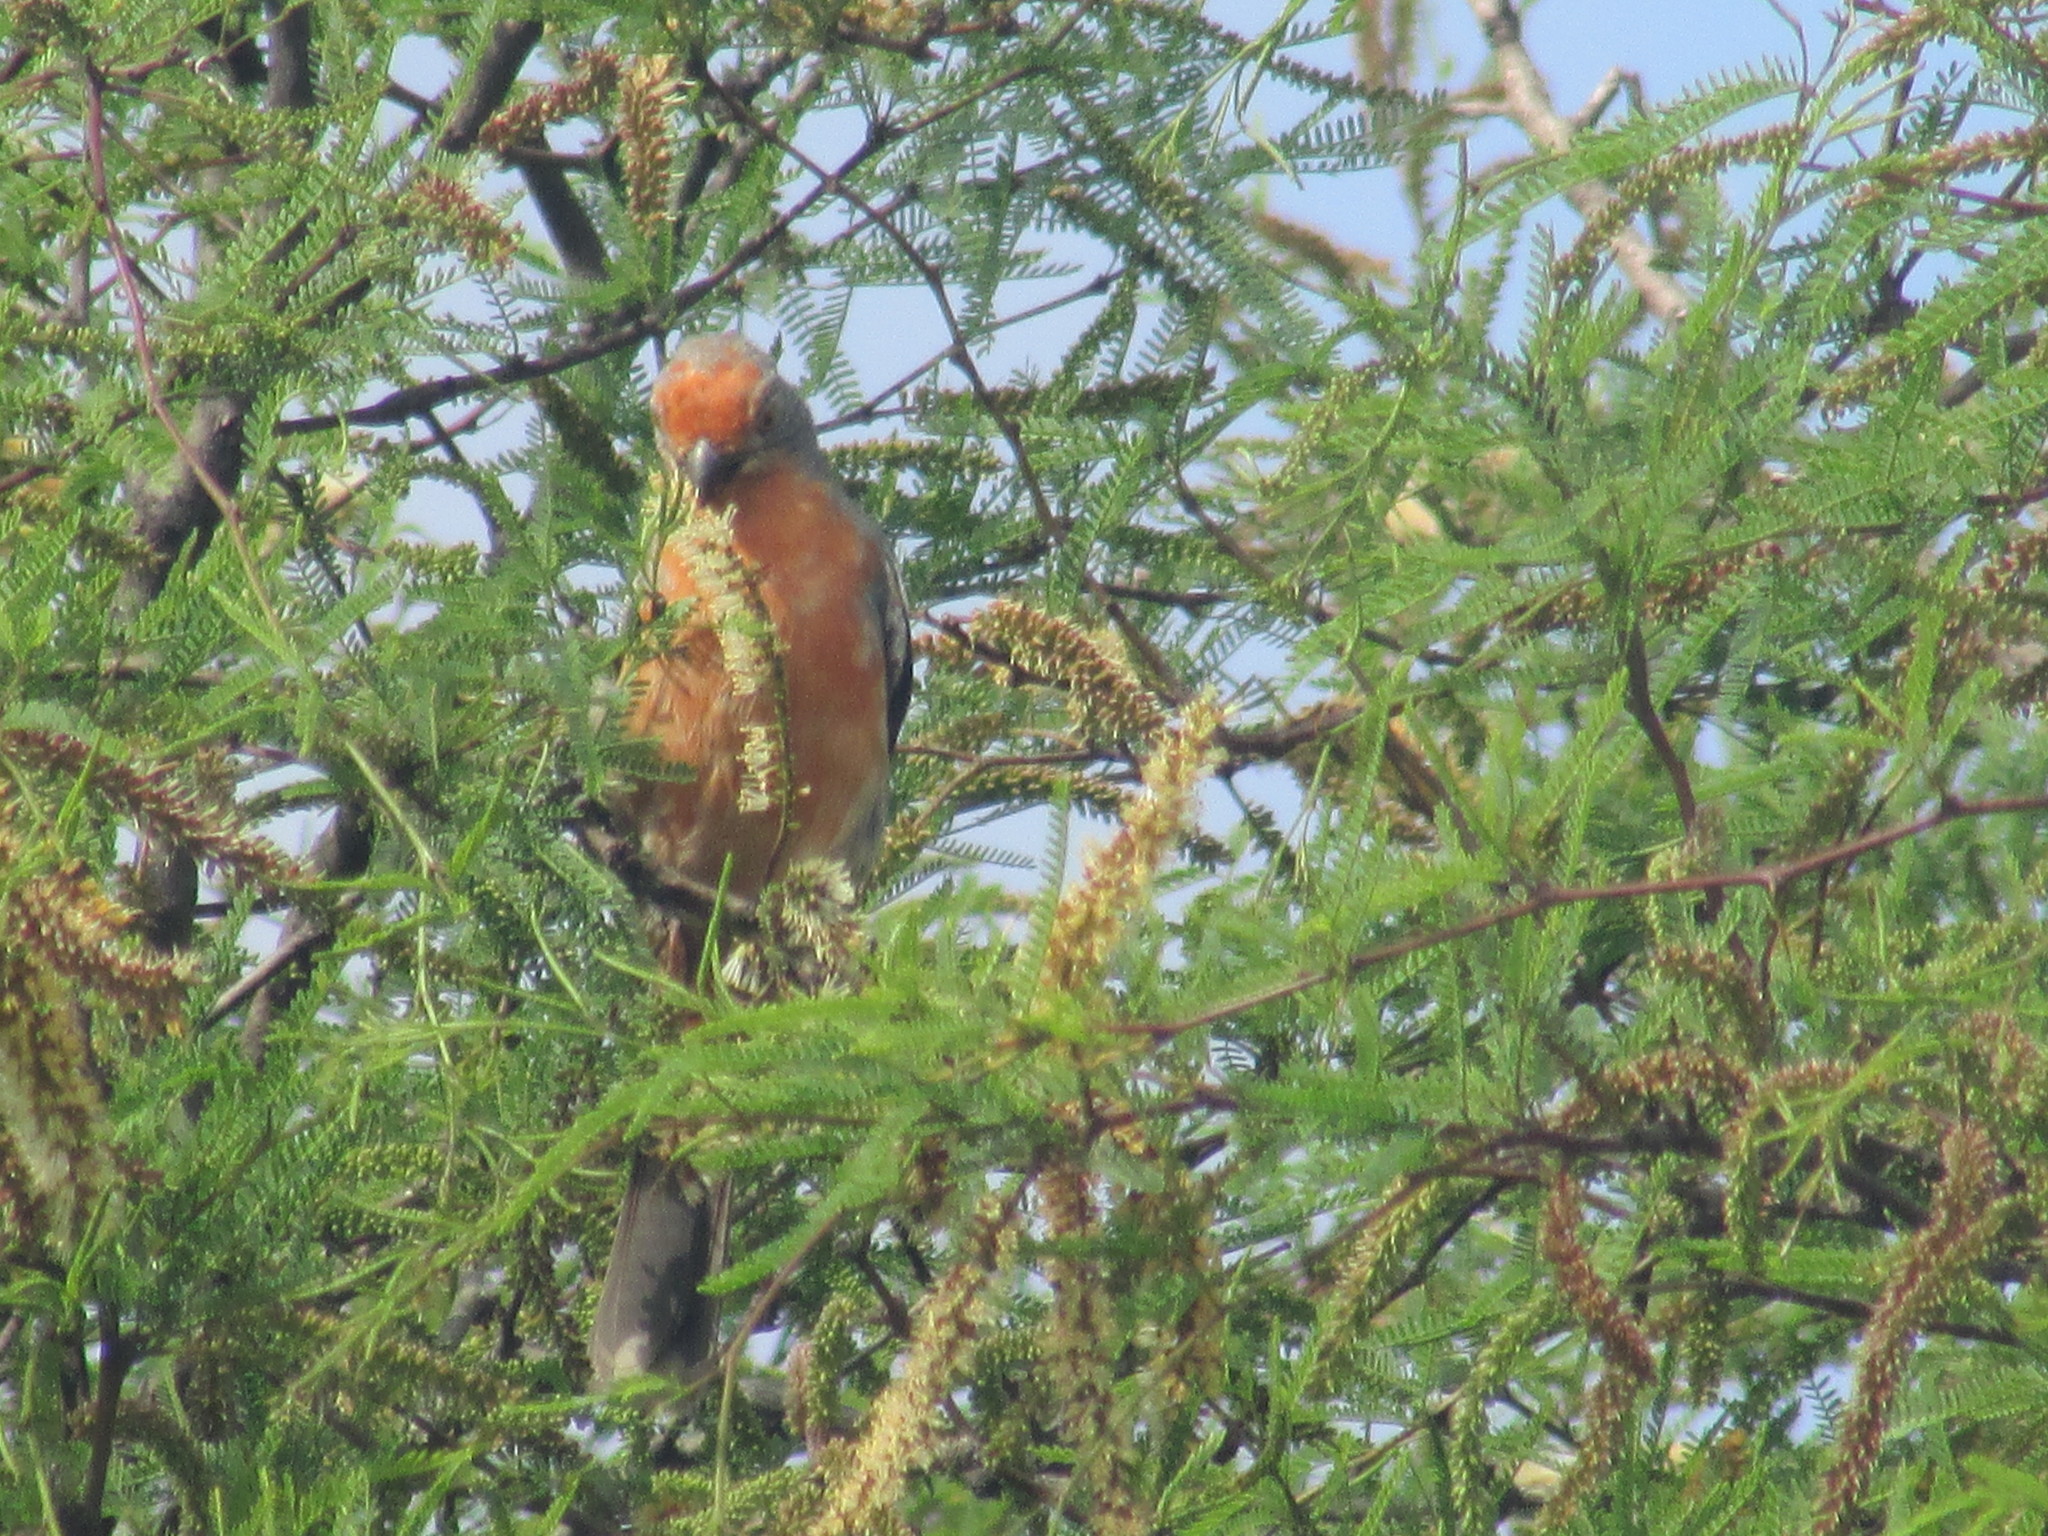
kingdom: Animalia
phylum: Chordata
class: Aves
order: Passeriformes
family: Cotingidae
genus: Phytotoma
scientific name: Phytotoma rutila
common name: White-tipped plantcutter
